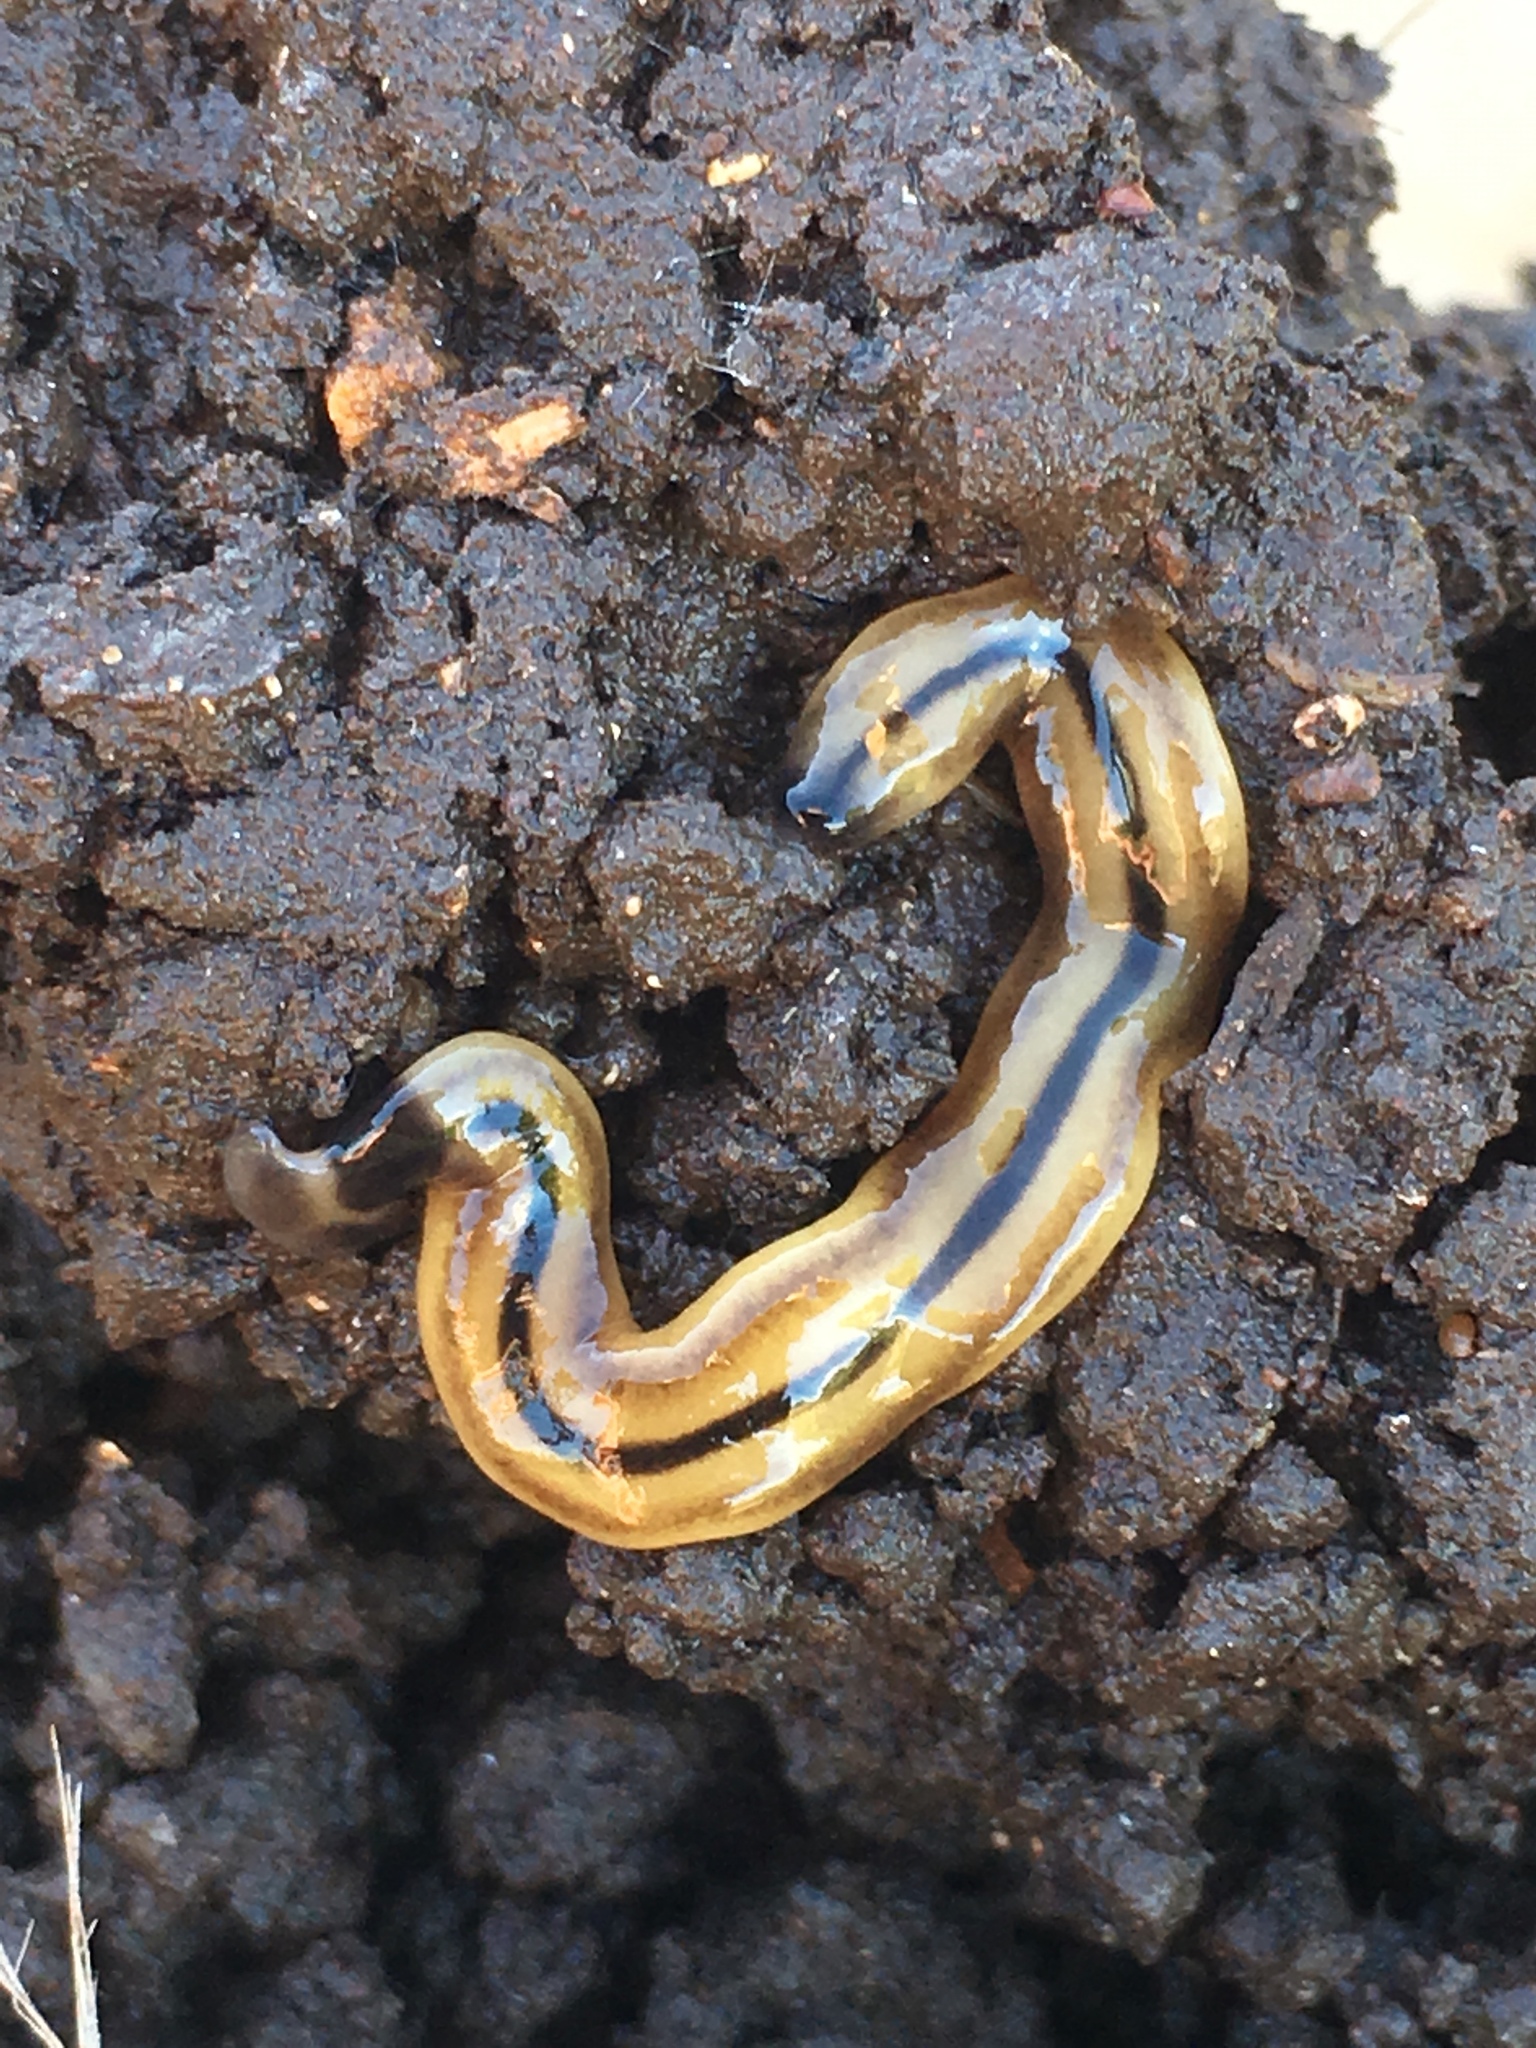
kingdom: Animalia
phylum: Platyhelminthes
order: Tricladida
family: Geoplanidae
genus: Bipalium
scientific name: Bipalium vagum
